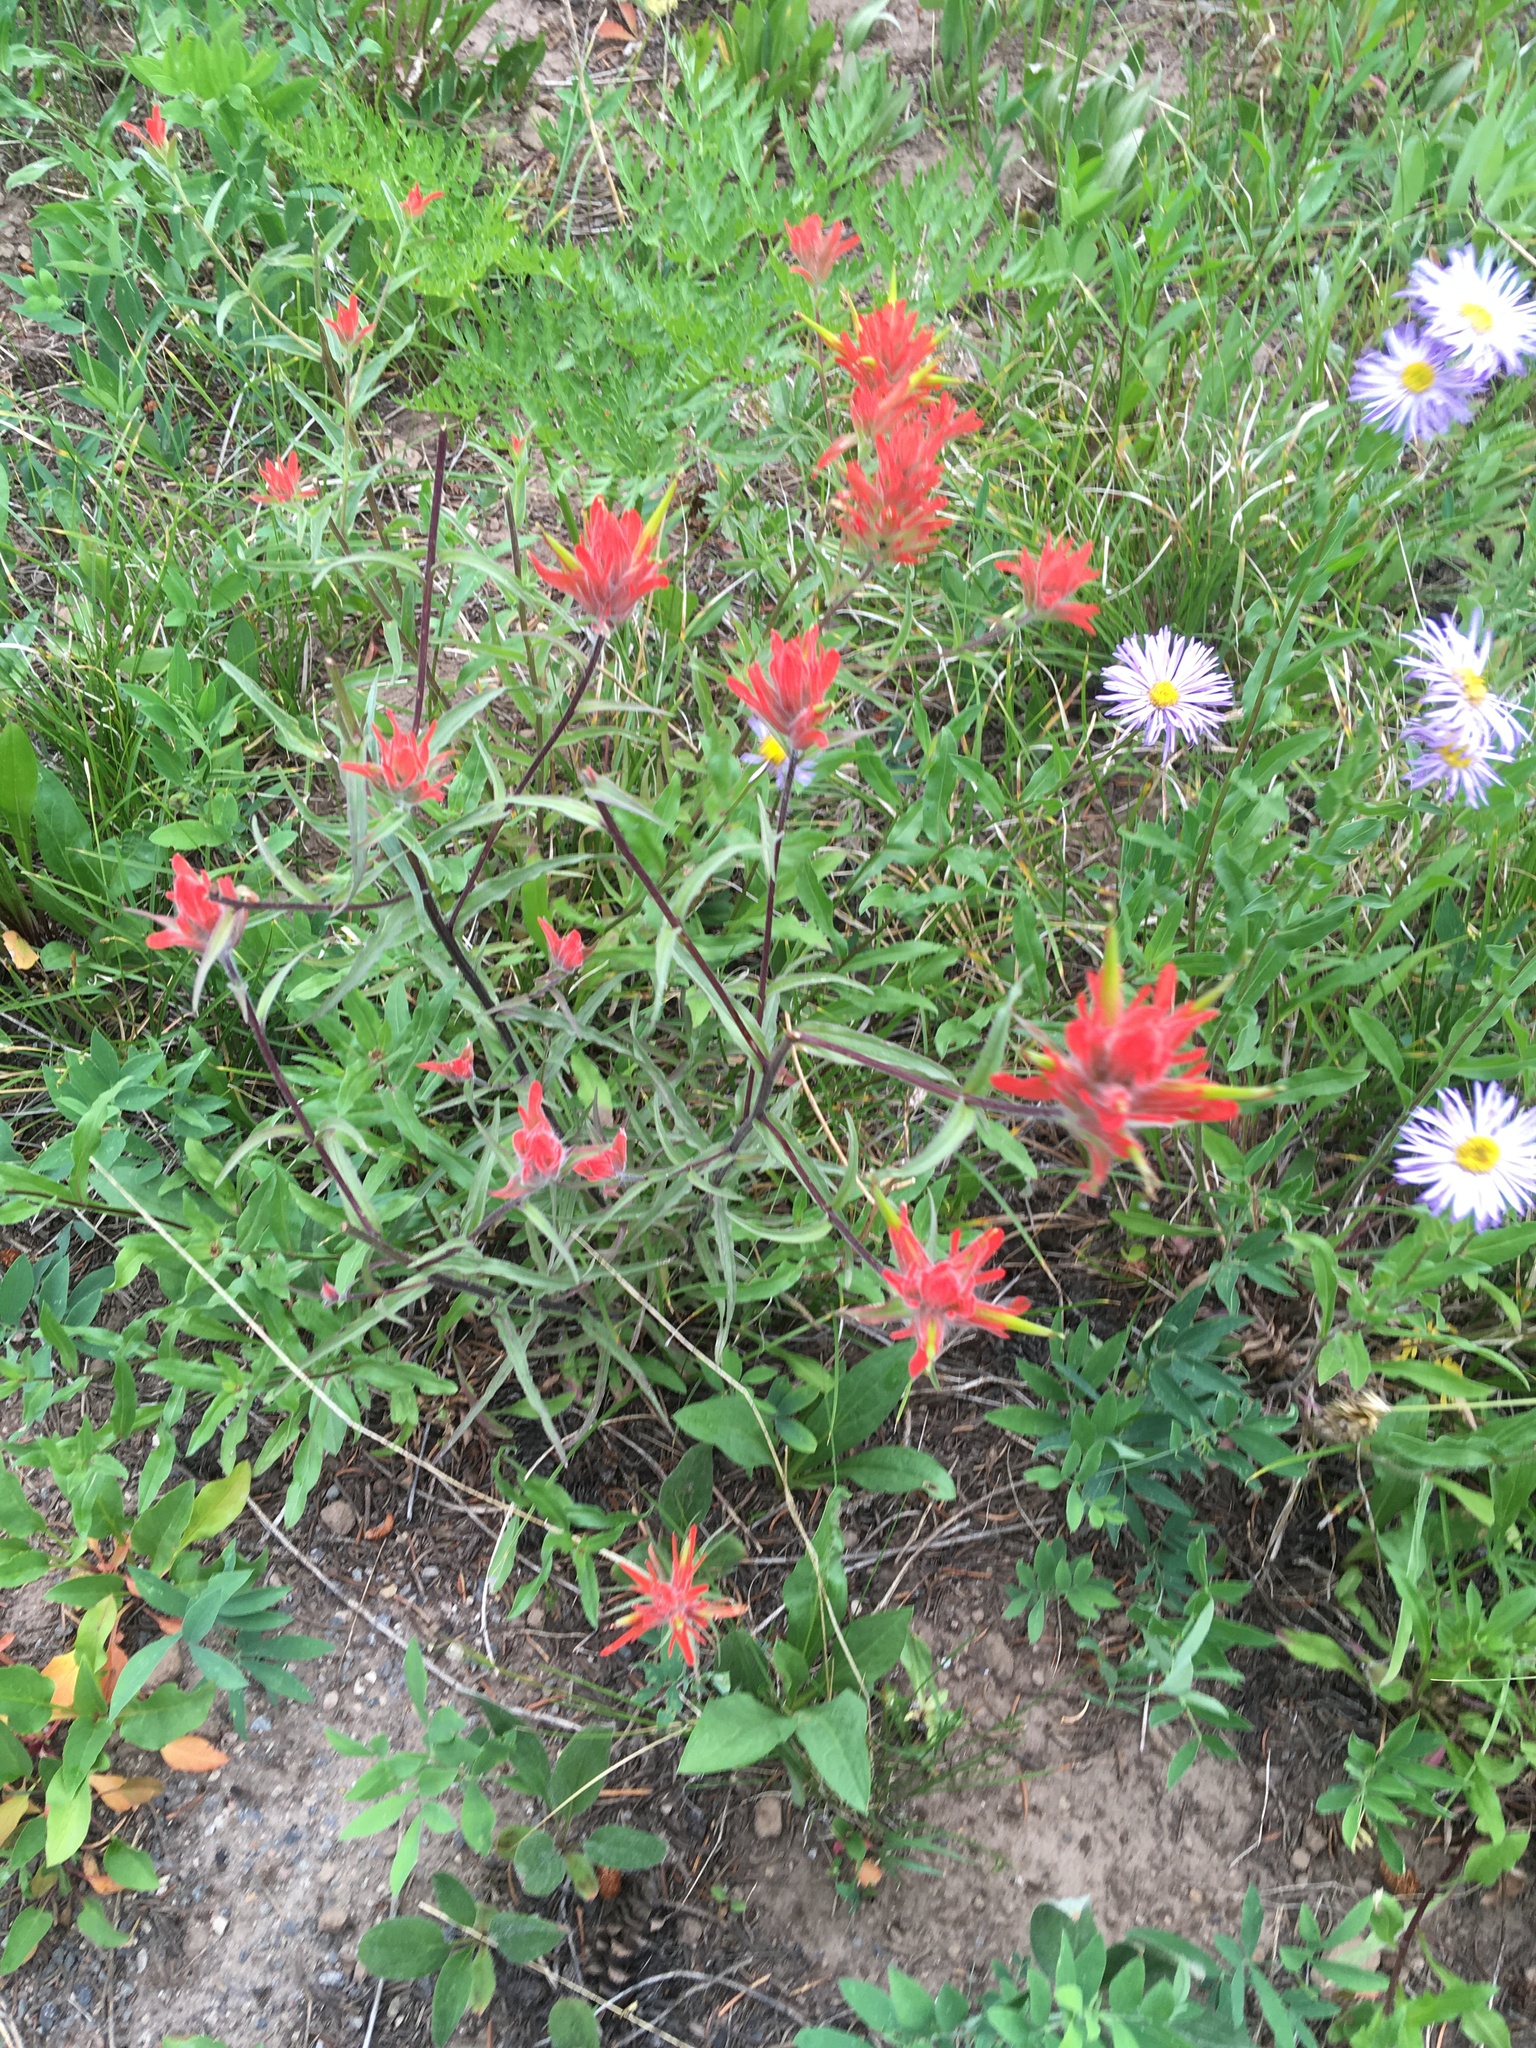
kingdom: Plantae
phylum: Tracheophyta
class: Magnoliopsida
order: Lamiales
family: Orobanchaceae
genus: Castilleja
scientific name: Castilleja miniata
